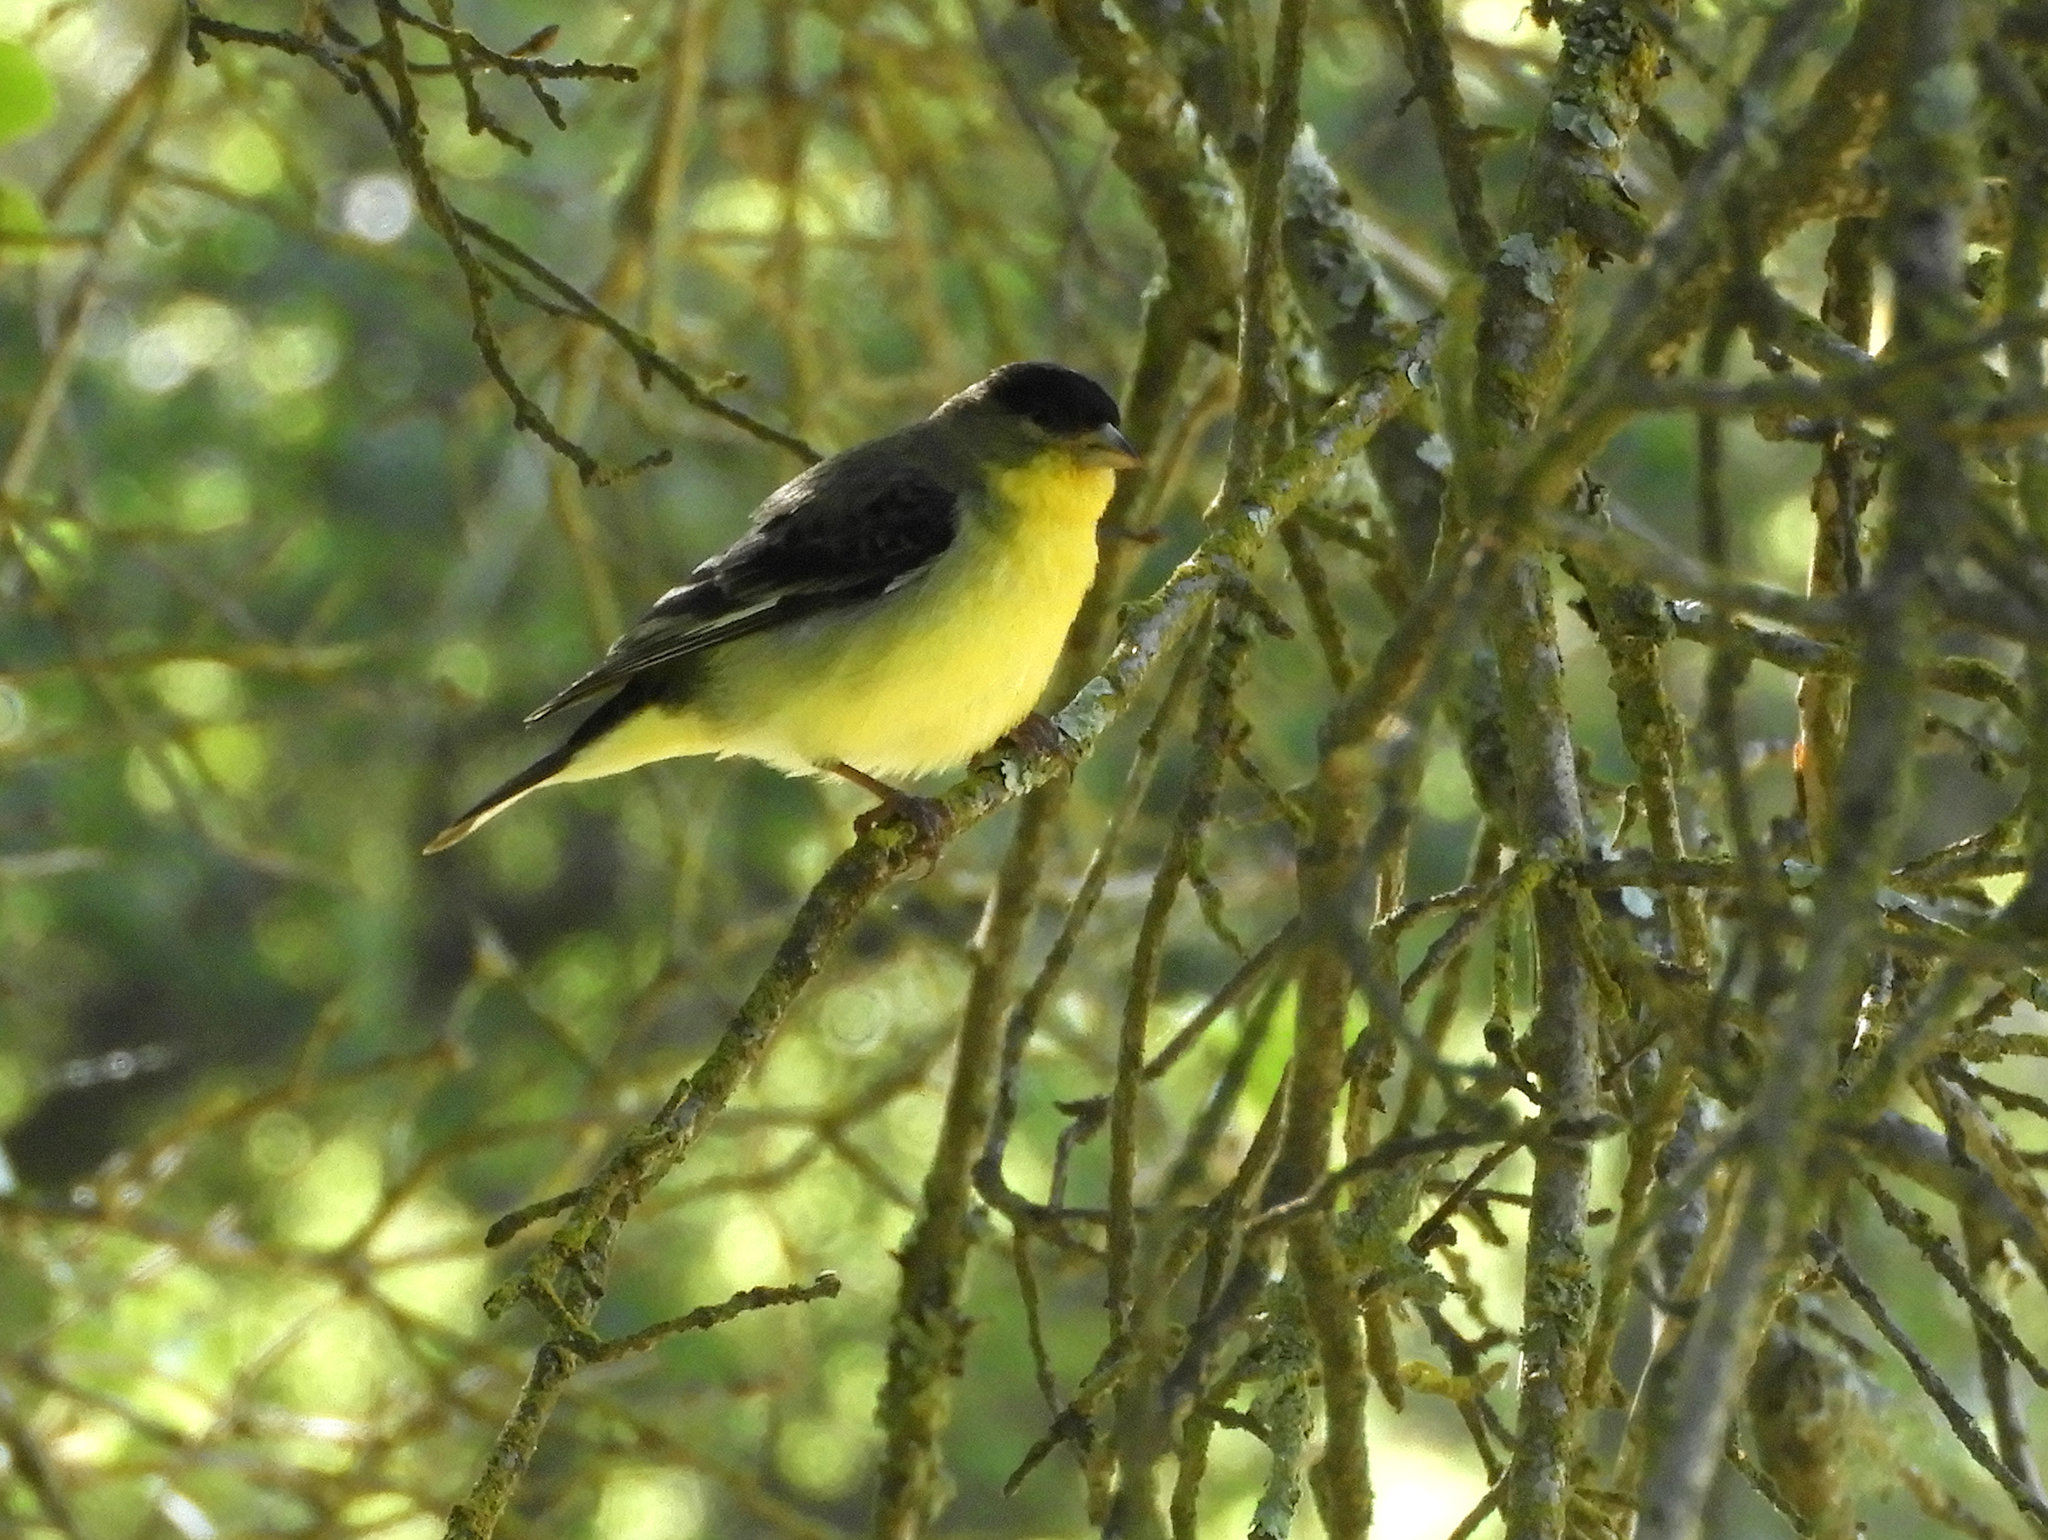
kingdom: Animalia
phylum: Chordata
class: Aves
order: Passeriformes
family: Fringillidae
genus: Spinus
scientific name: Spinus psaltria
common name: Lesser goldfinch
